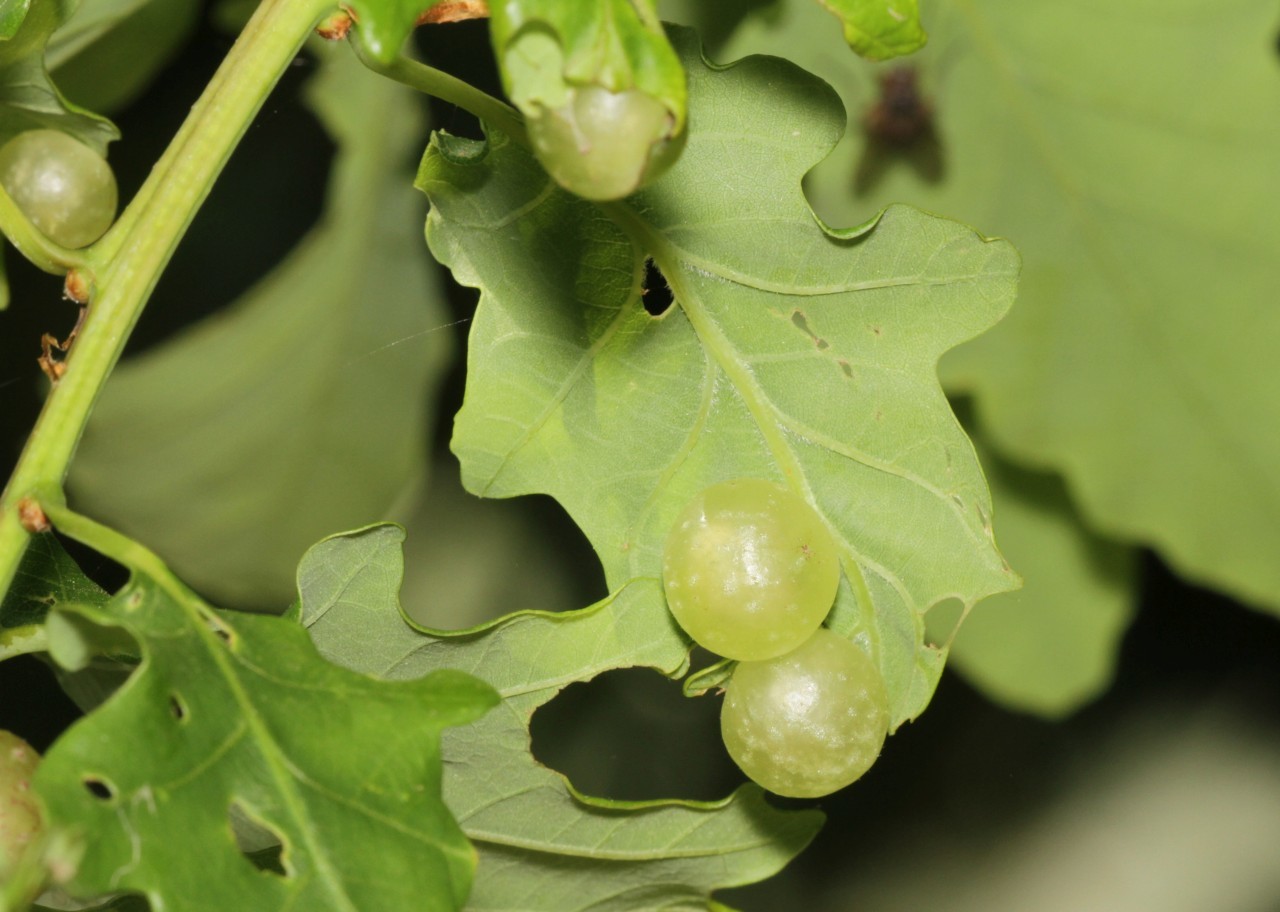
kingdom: Animalia
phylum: Arthropoda
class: Insecta
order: Hymenoptera
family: Cynipidae
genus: Neuroterus
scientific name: Neuroterus quercusbaccarum
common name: Common spangle gall
